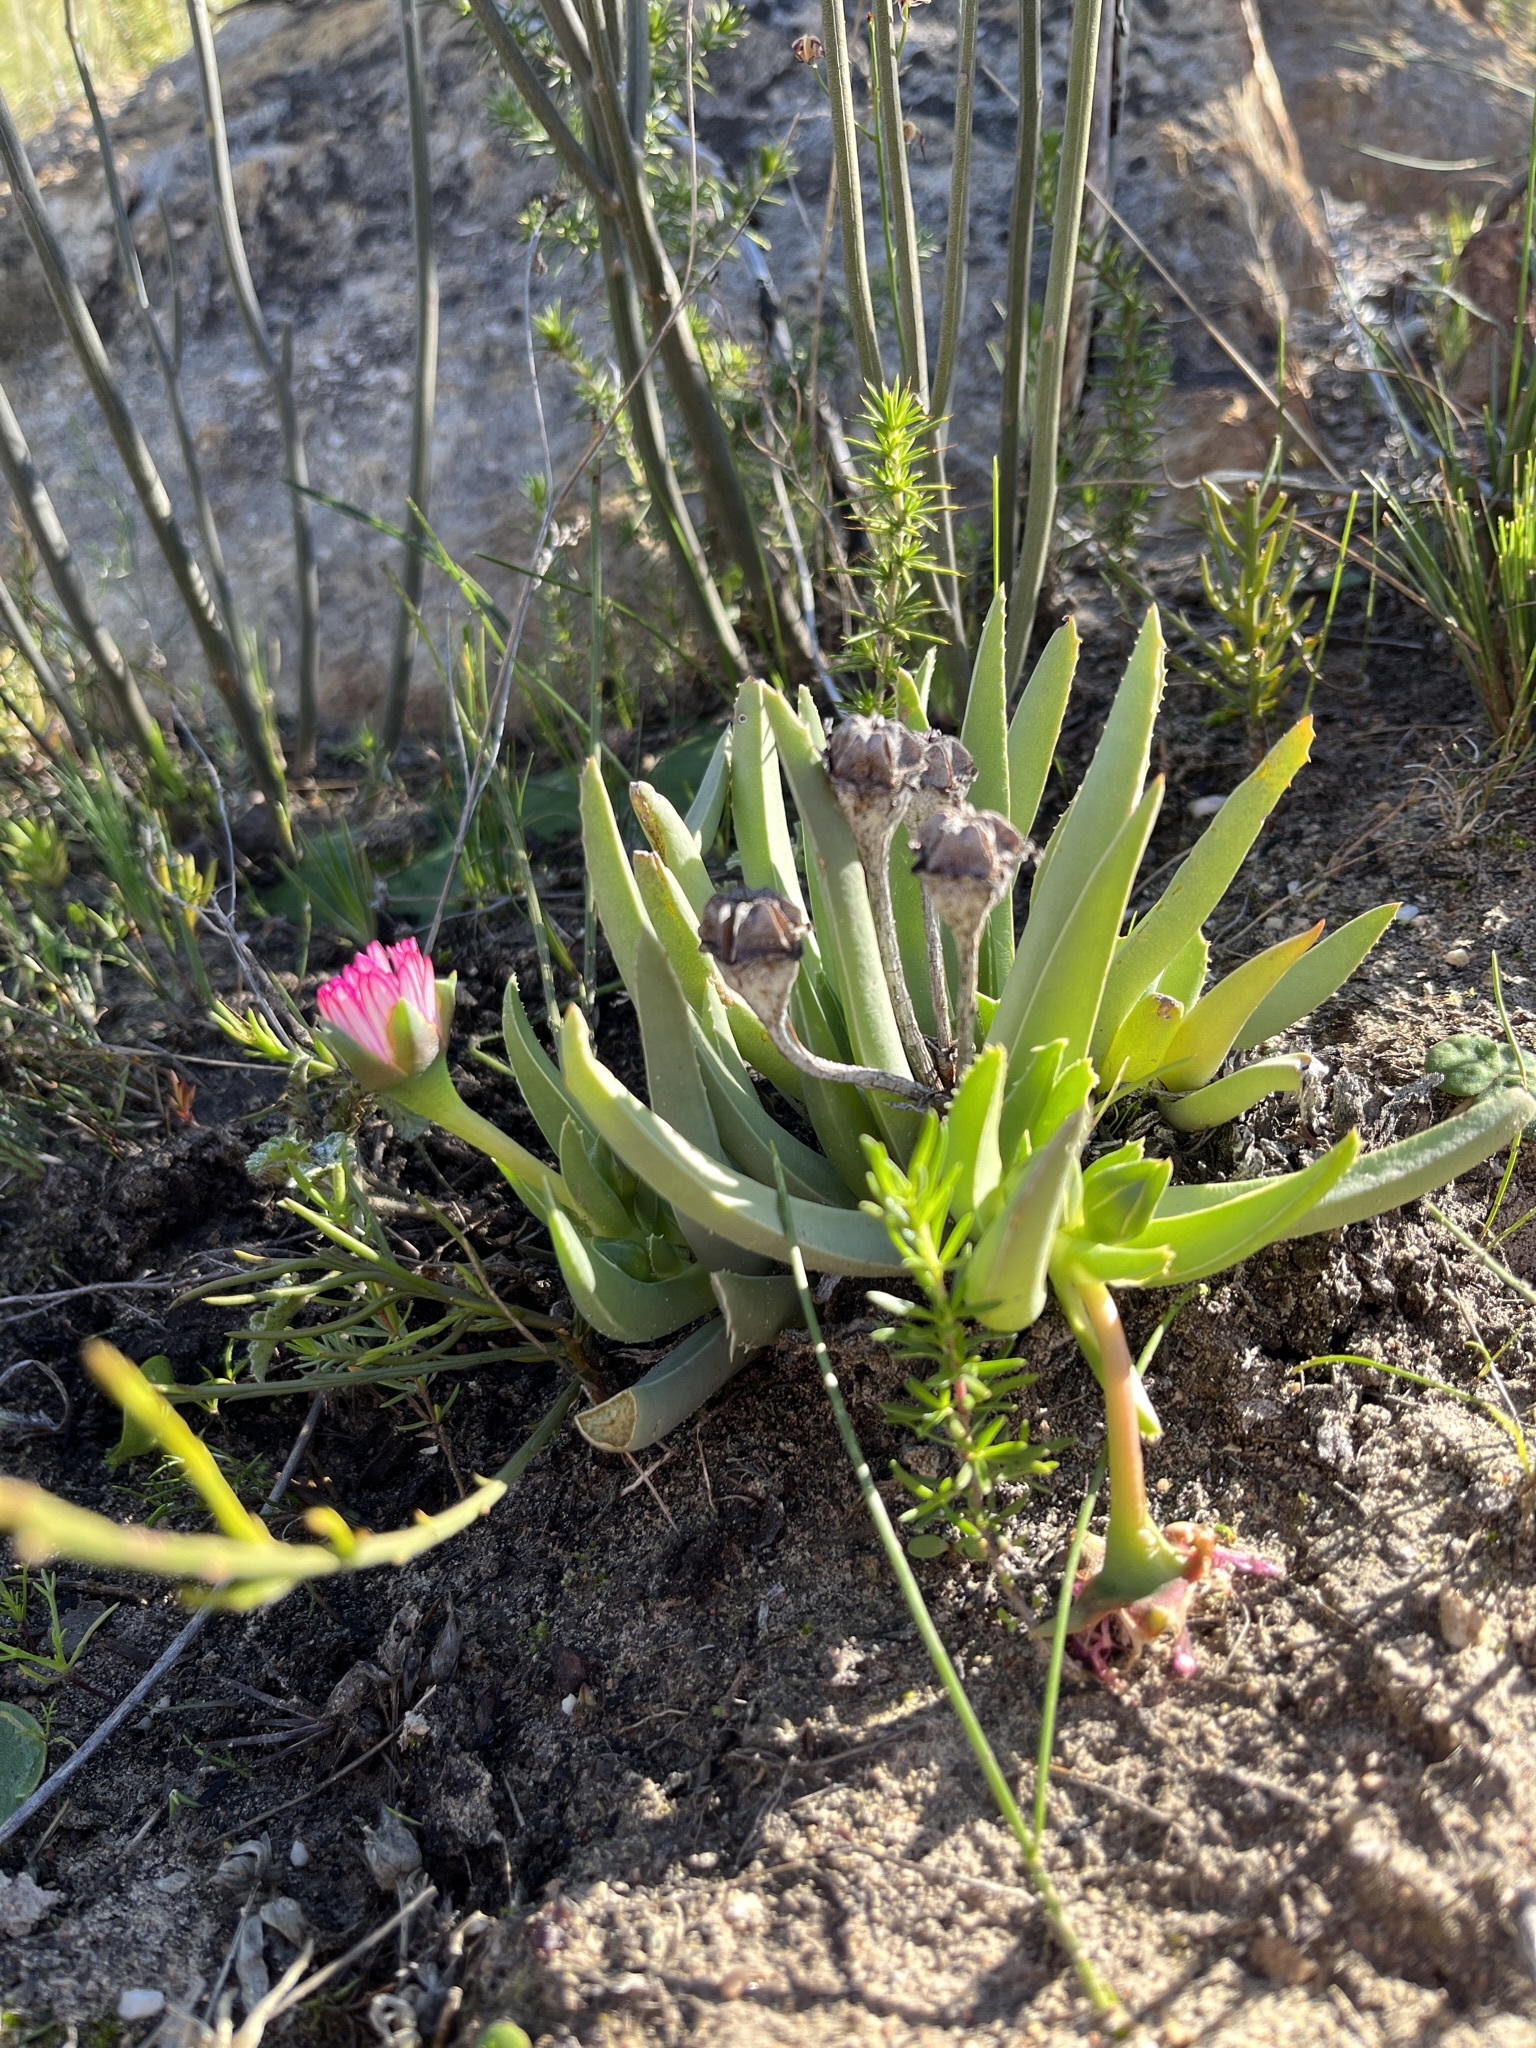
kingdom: Plantae
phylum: Tracheophyta
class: Magnoliopsida
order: Caryophyllales
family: Aizoaceae
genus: Acrodon
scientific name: Acrodon bellidiflorus
